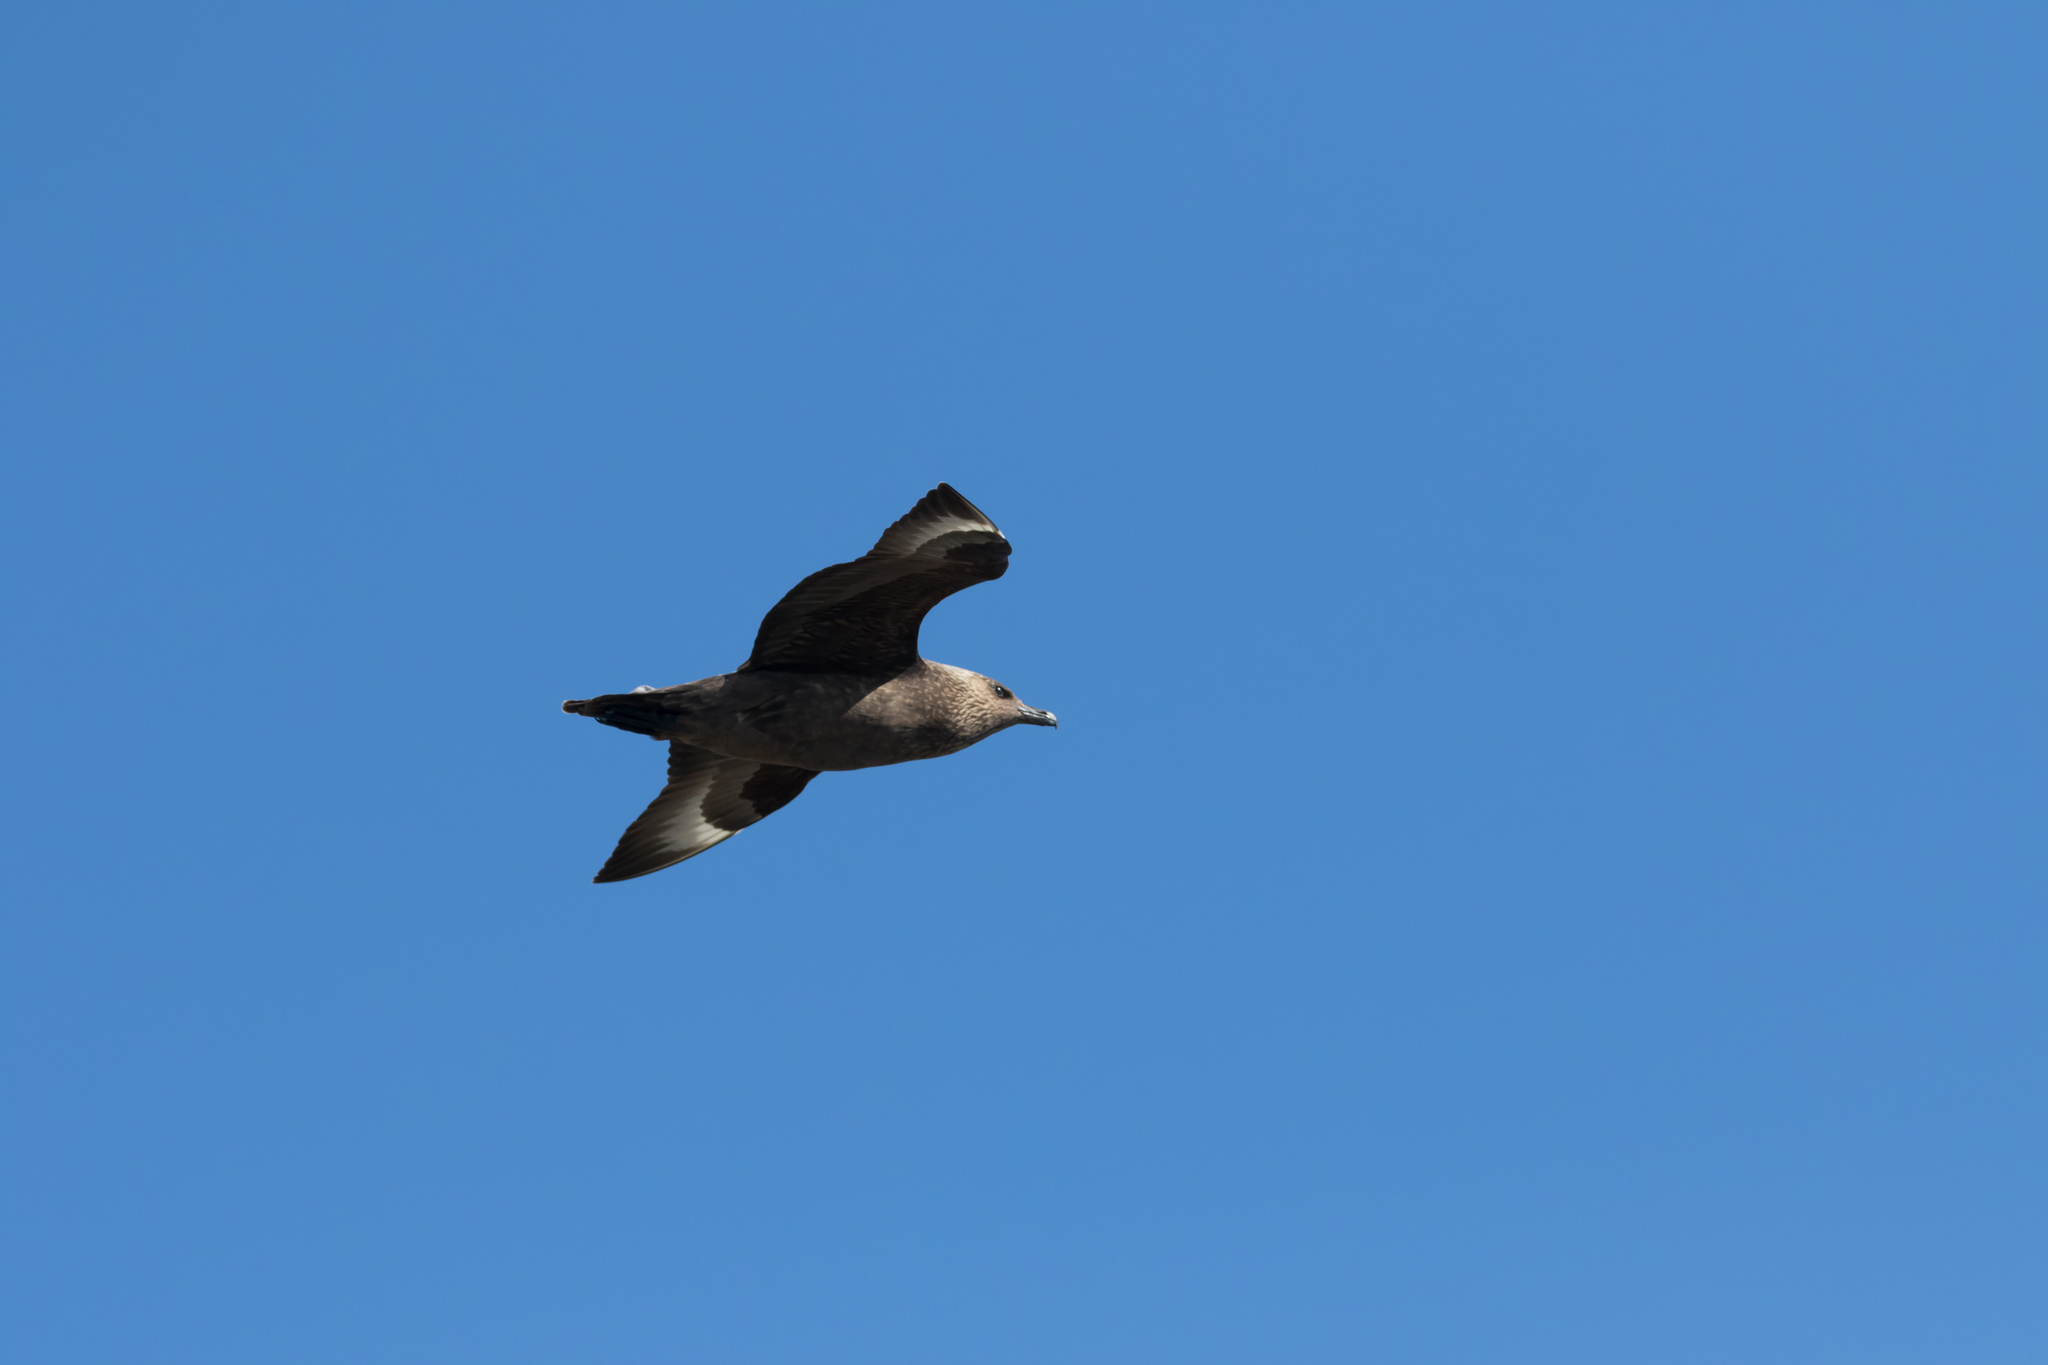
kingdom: Animalia
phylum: Chordata
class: Aves
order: Charadriiformes
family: Stercorariidae
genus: Stercorarius
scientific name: Stercorarius skua
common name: Great skua
